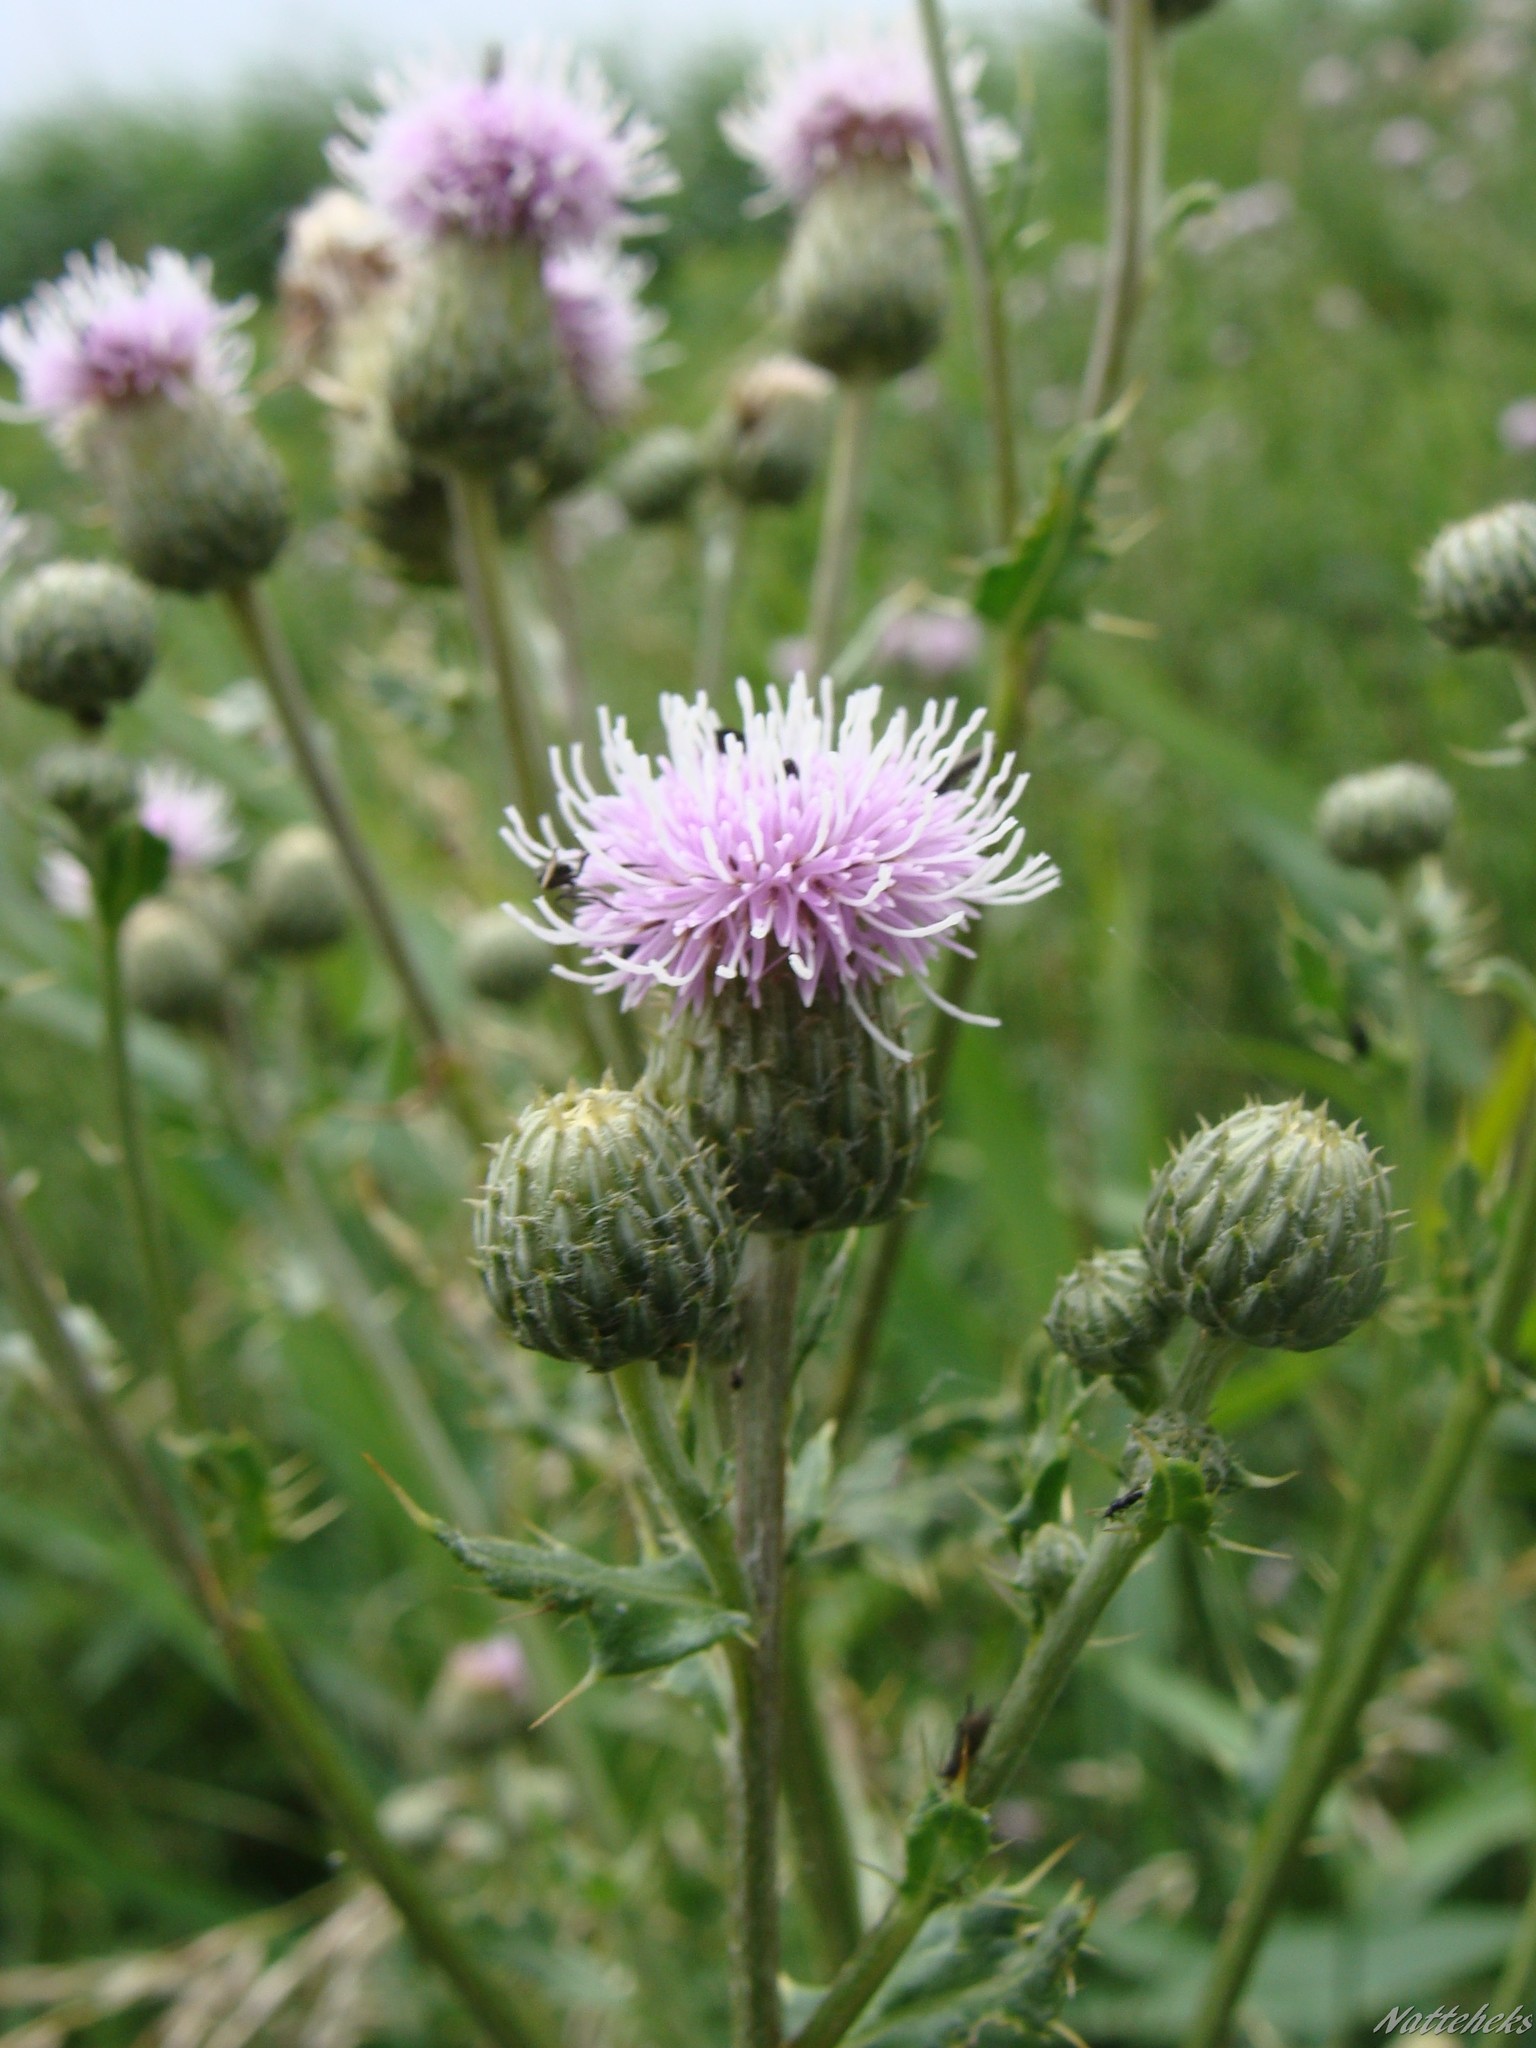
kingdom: Plantae
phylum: Tracheophyta
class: Magnoliopsida
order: Asterales
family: Asteraceae
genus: Cirsium
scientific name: Cirsium arvense
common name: Creeping thistle
